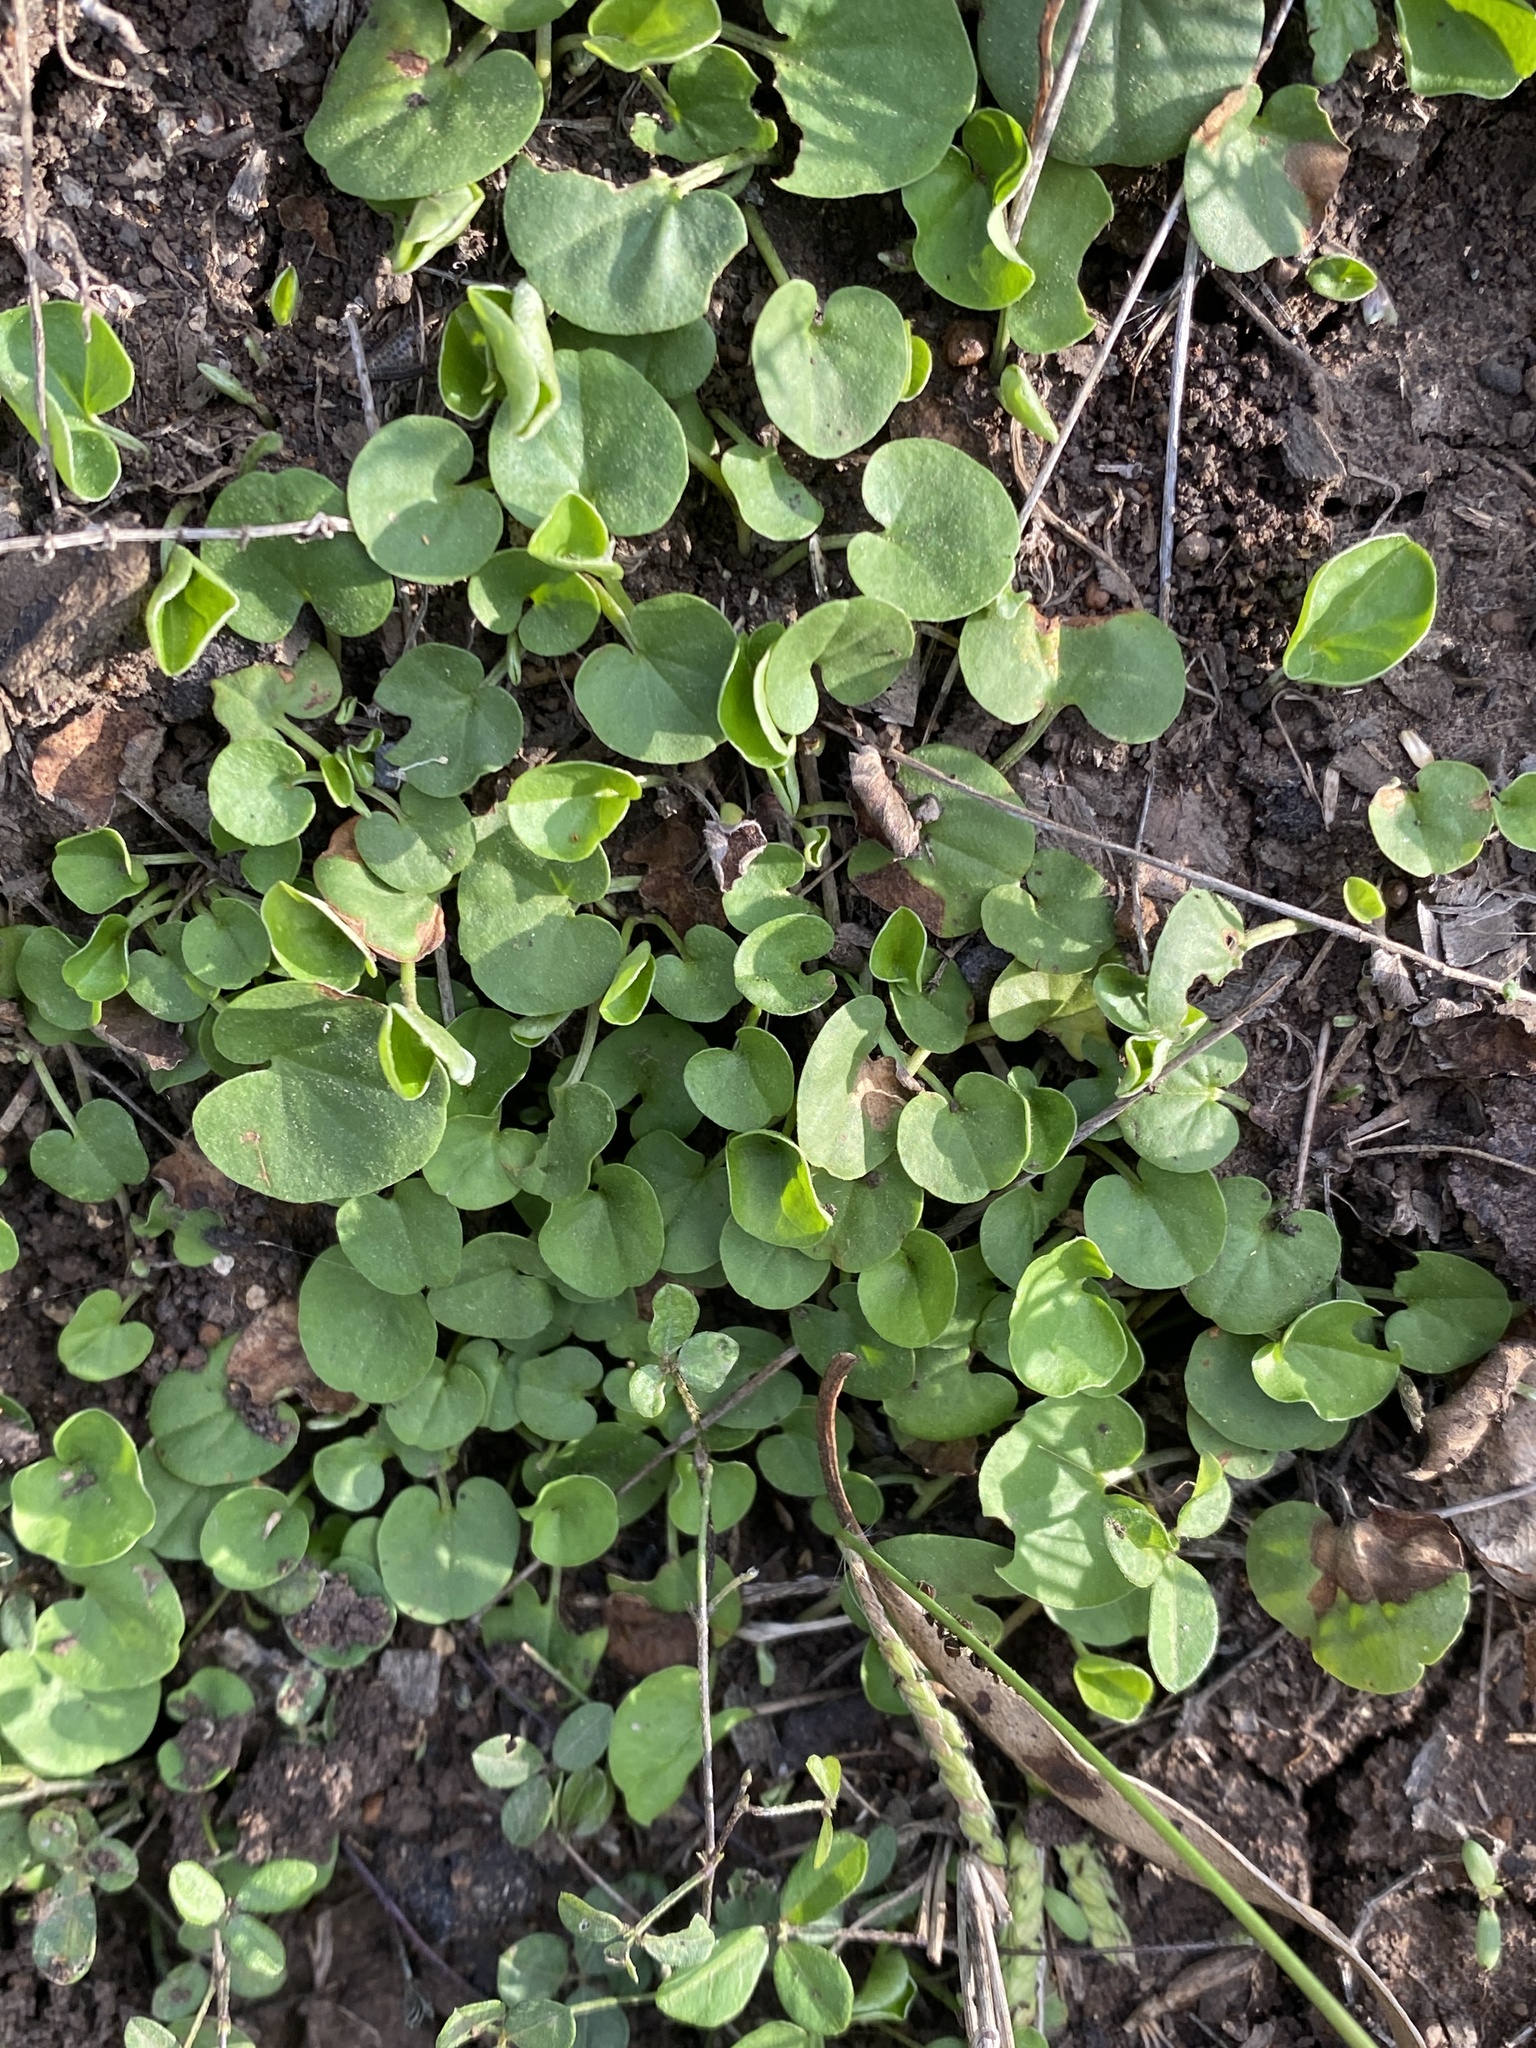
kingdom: Plantae
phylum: Tracheophyta
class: Magnoliopsida
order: Solanales
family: Convolvulaceae
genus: Dichondra
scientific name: Dichondra repens
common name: Kidneyweed
